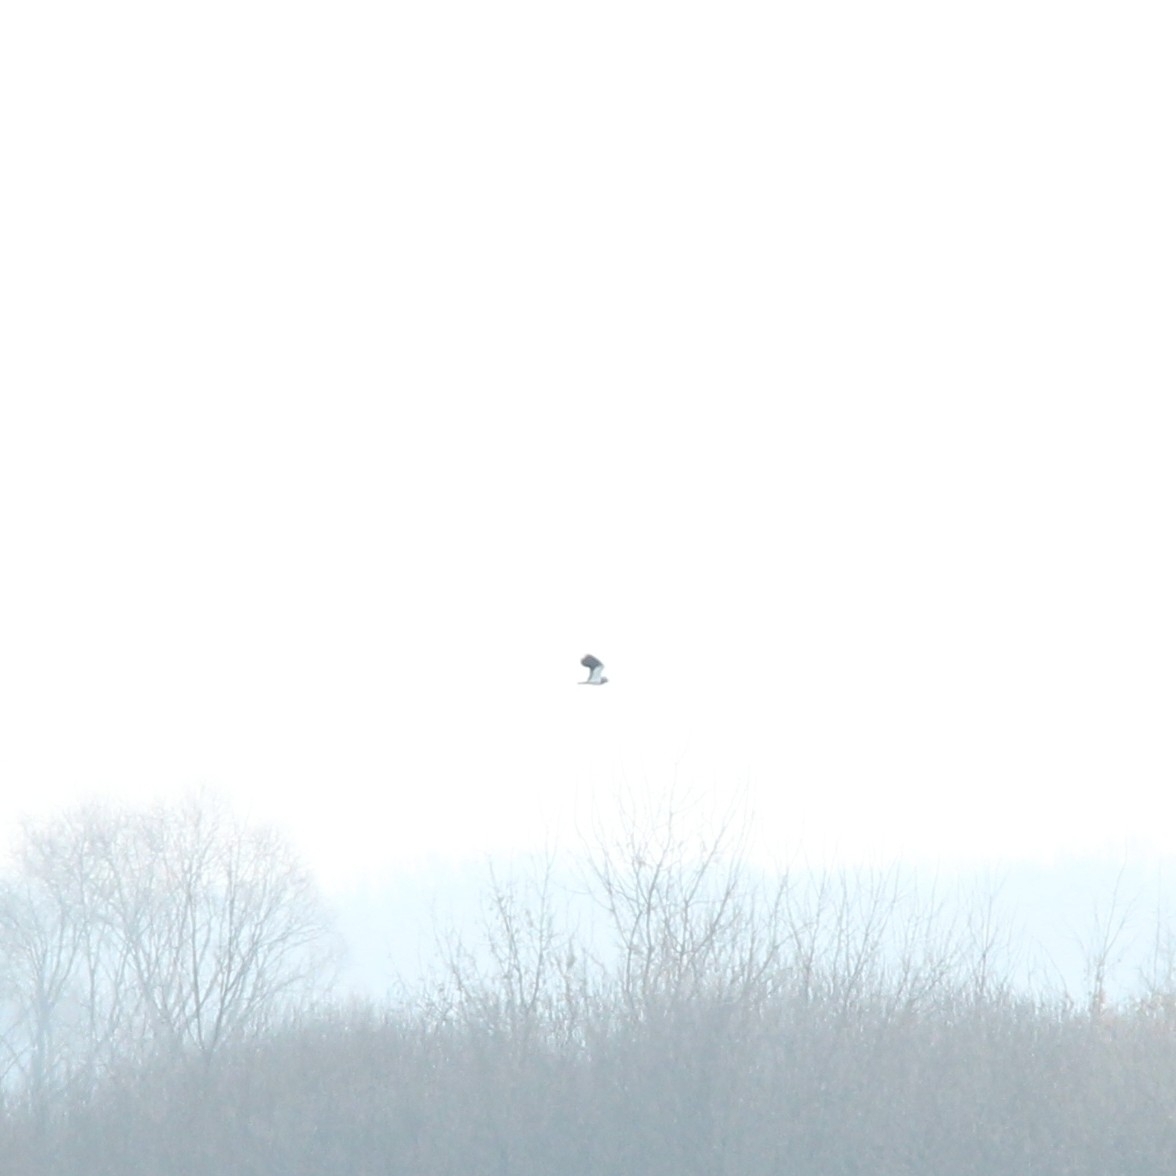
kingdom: Animalia
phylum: Chordata
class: Aves
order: Charadriiformes
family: Charadriidae
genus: Vanellus
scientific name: Vanellus vanellus
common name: Northern lapwing
